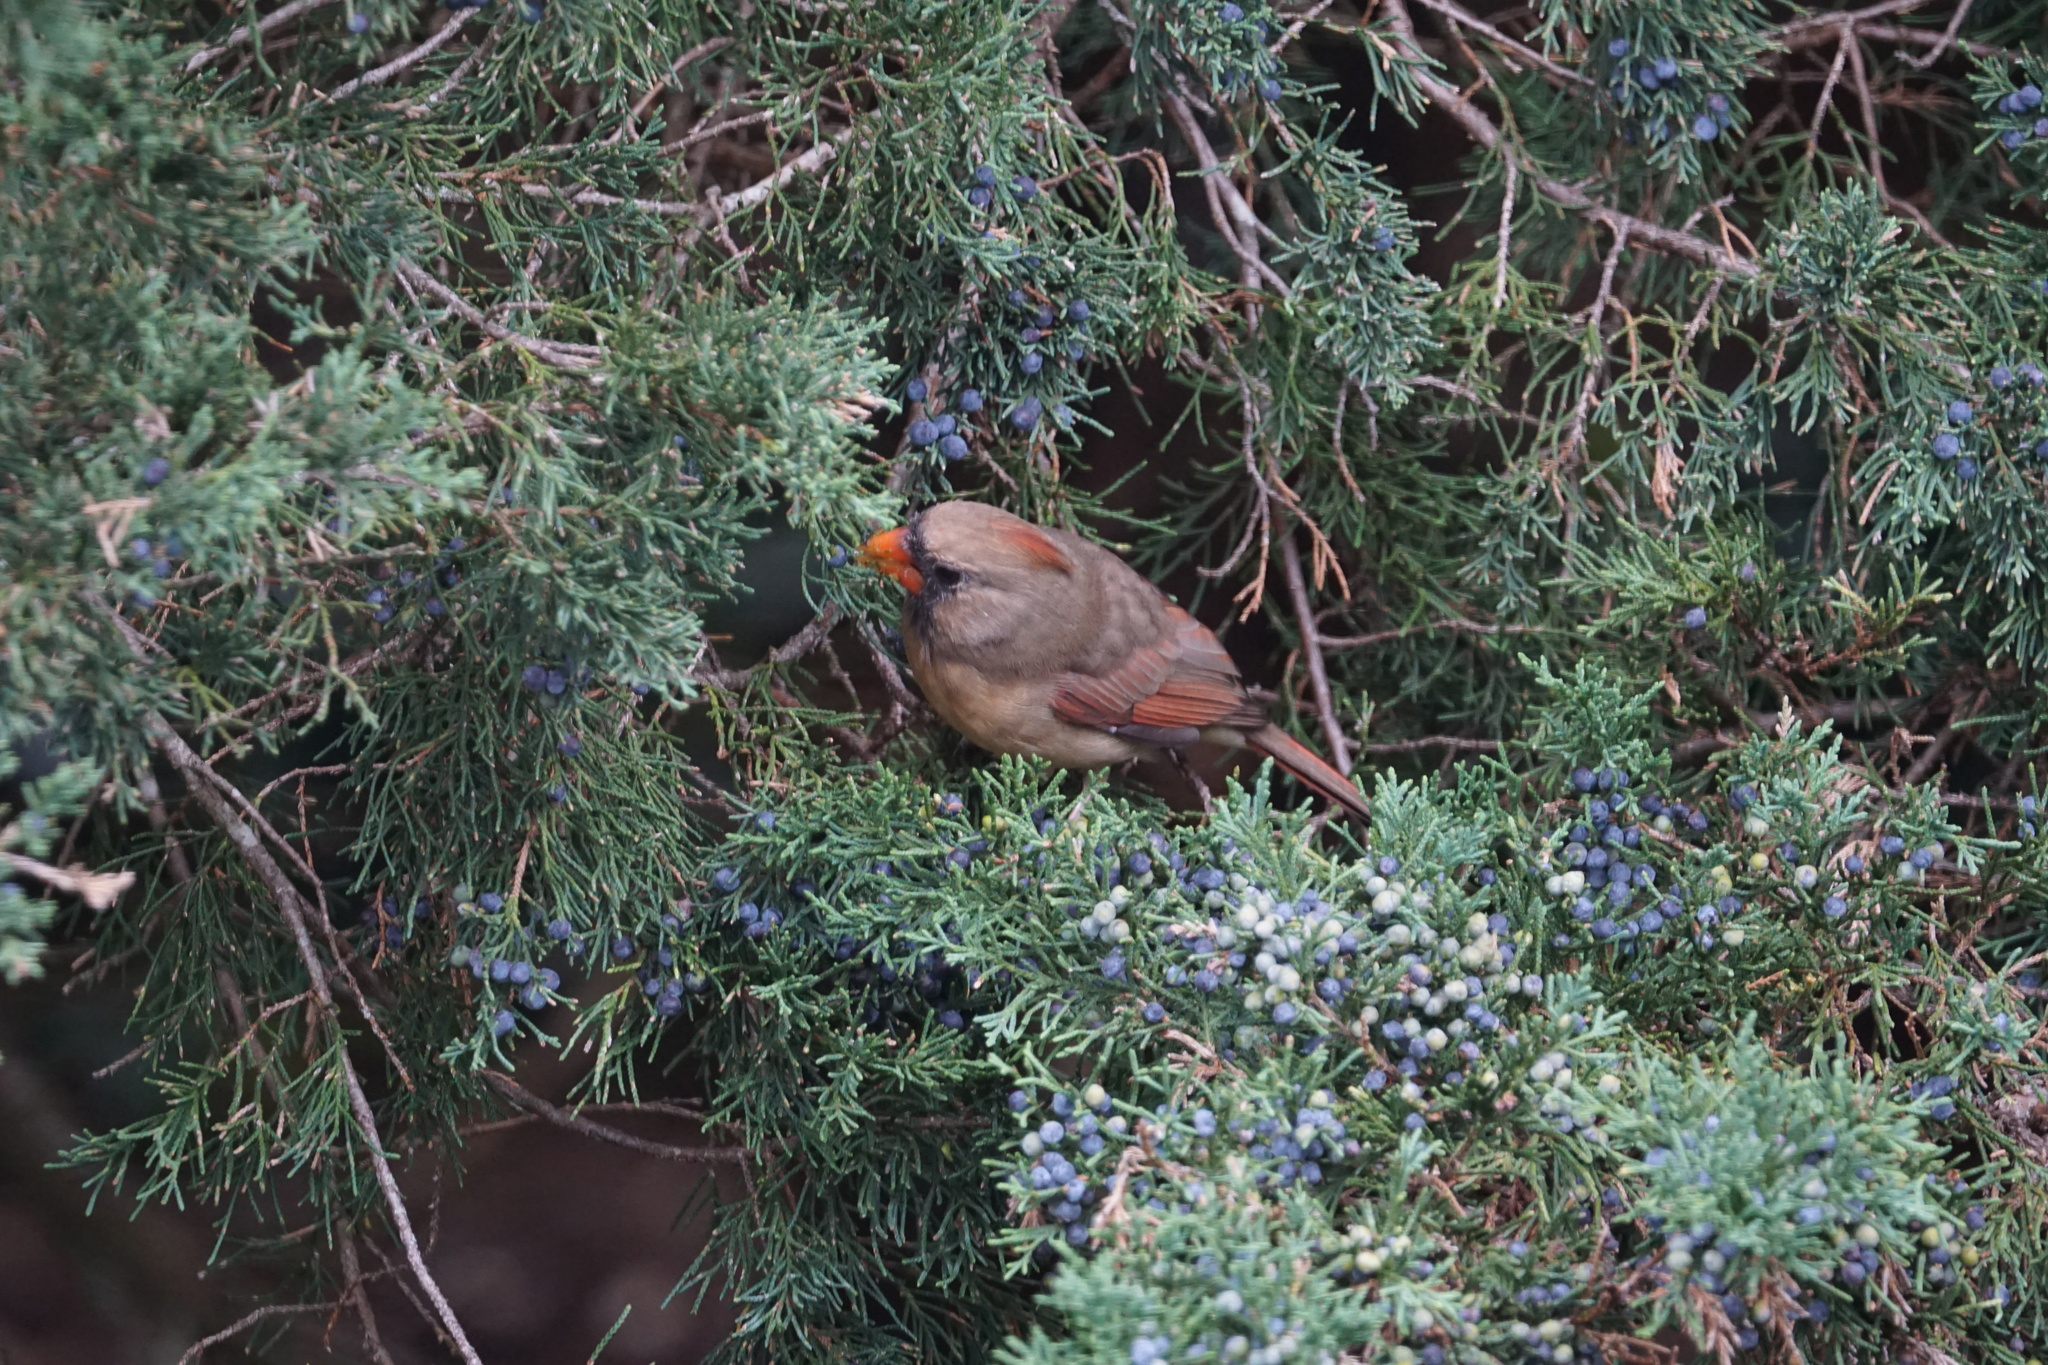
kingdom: Animalia
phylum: Chordata
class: Aves
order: Passeriformes
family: Cardinalidae
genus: Cardinalis
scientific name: Cardinalis cardinalis
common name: Northern cardinal
